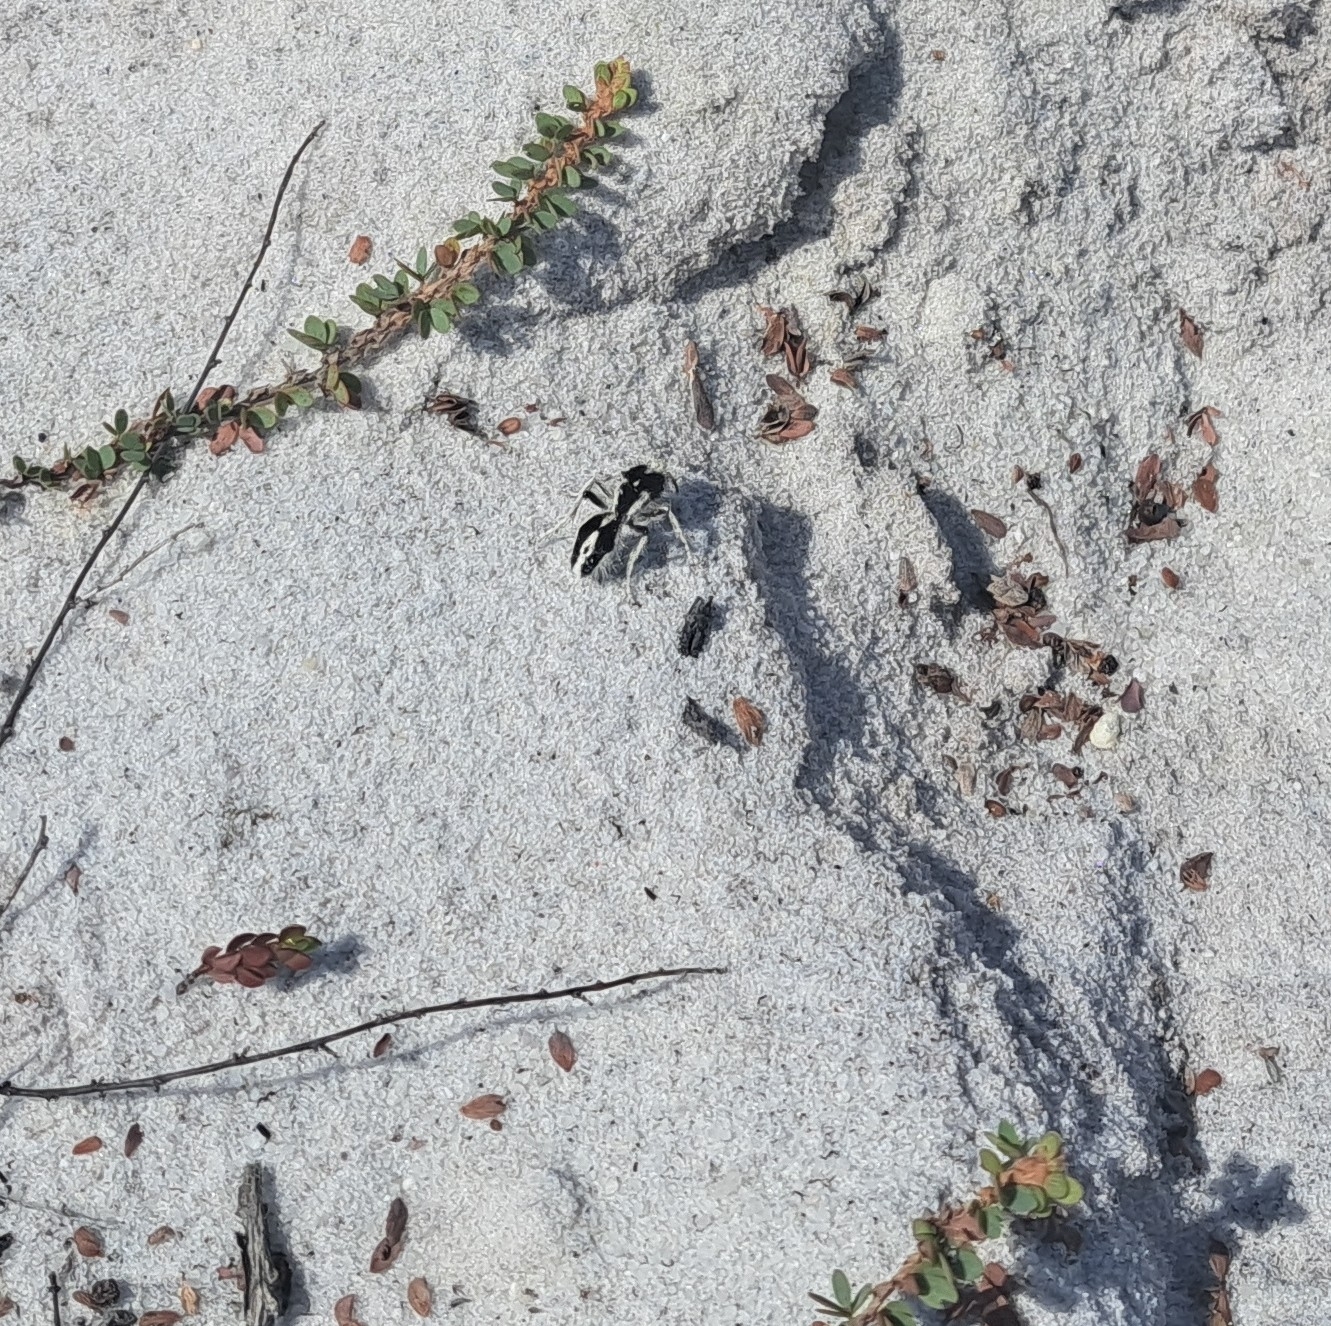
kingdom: Animalia
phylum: Arthropoda
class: Insecta
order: Hymenoptera
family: Mutillidae
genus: Leucospilomutilla
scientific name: Leucospilomutilla cerbera
